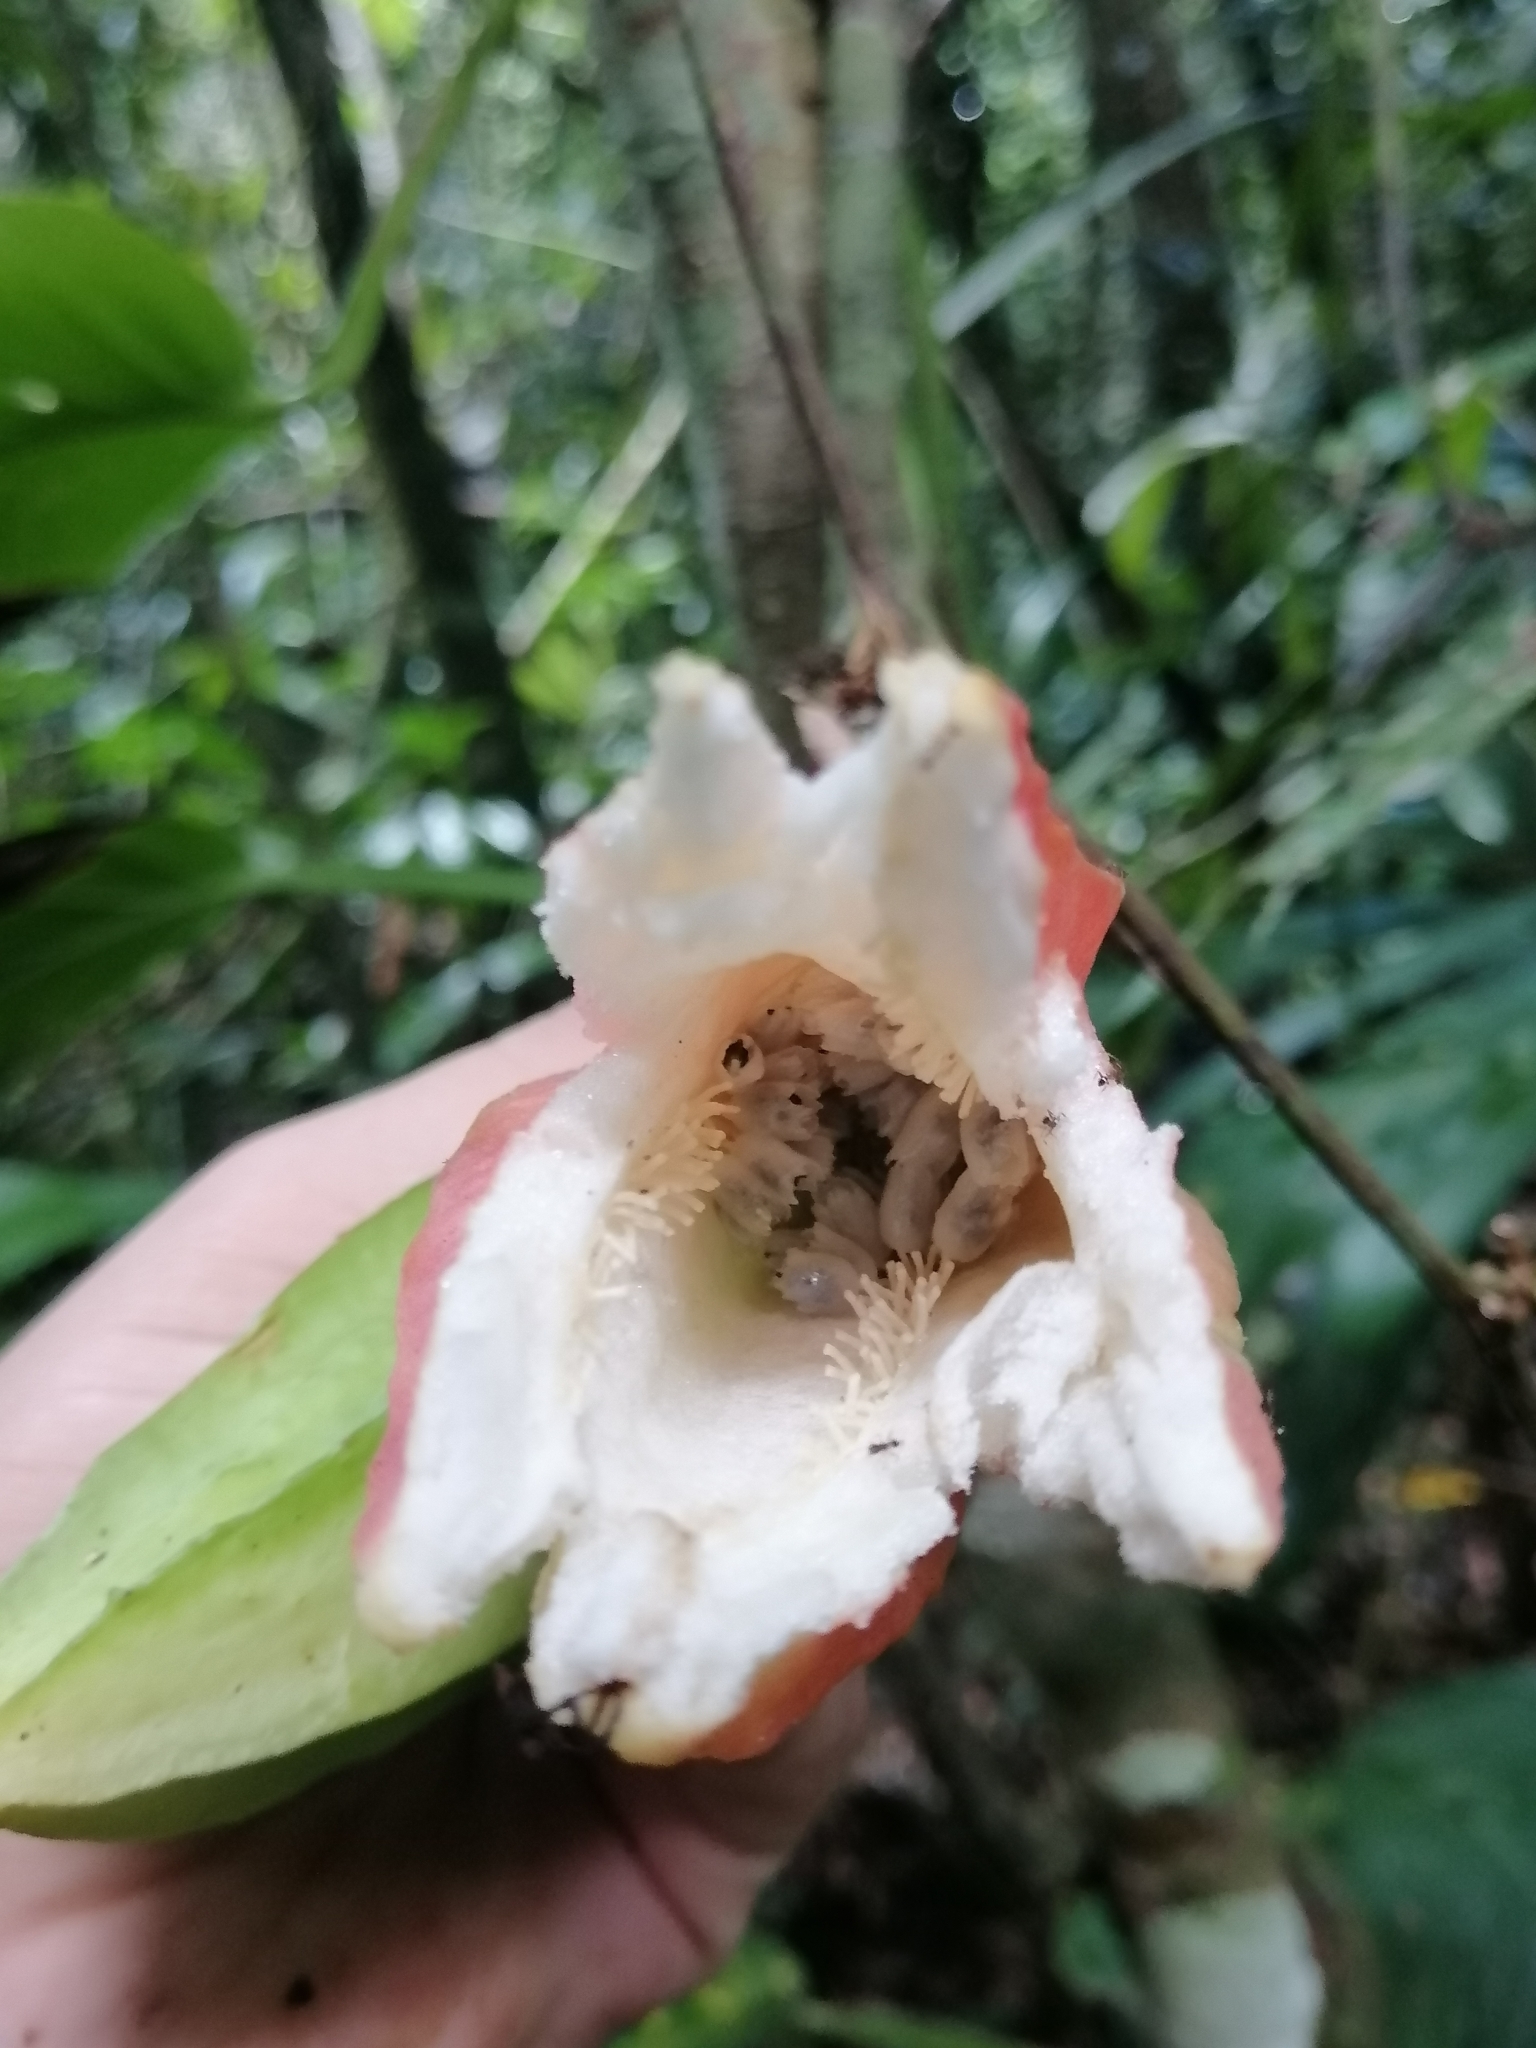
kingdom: Plantae
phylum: Tracheophyta
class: Magnoliopsida
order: Malpighiales
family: Passifloraceae
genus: Passiflora
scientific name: Passiflora rovirosae
